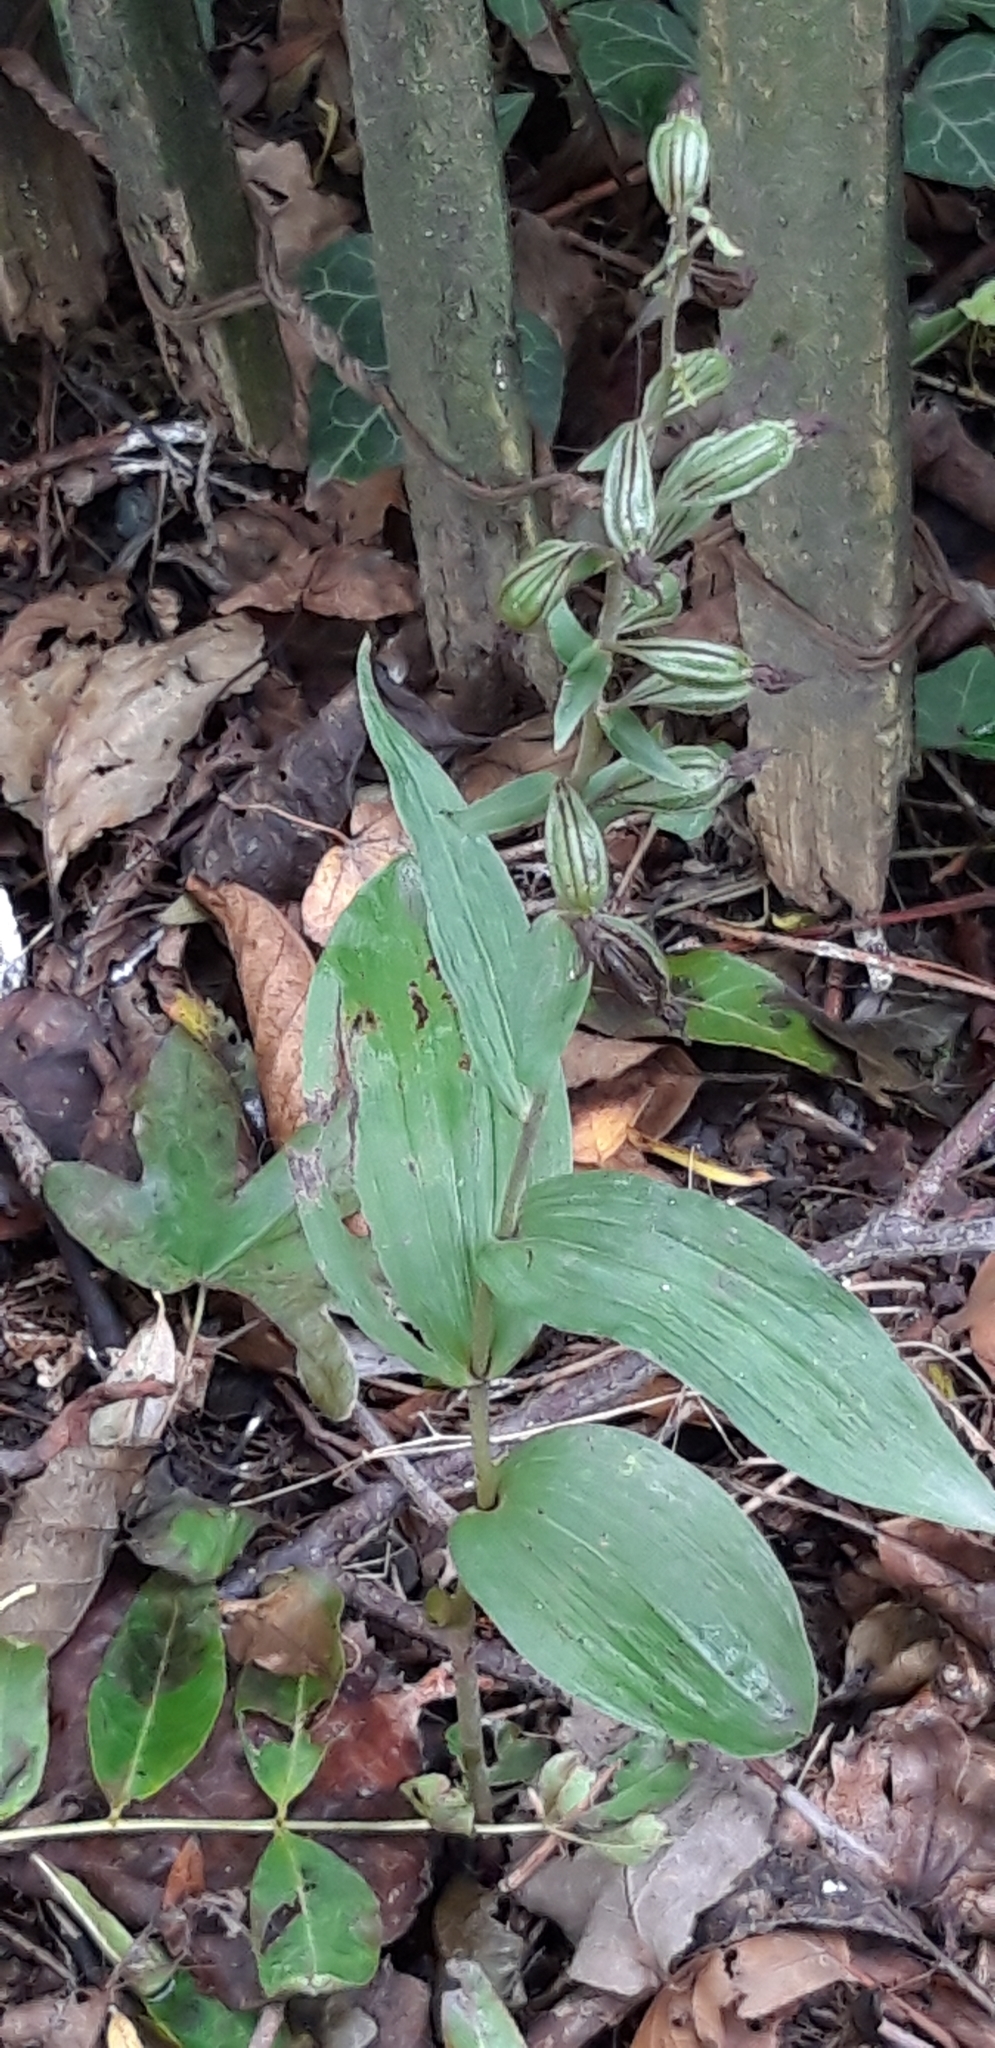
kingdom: Plantae
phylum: Tracheophyta
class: Liliopsida
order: Asparagales
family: Orchidaceae
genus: Epipactis
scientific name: Epipactis helleborine
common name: Broad-leaved helleborine
